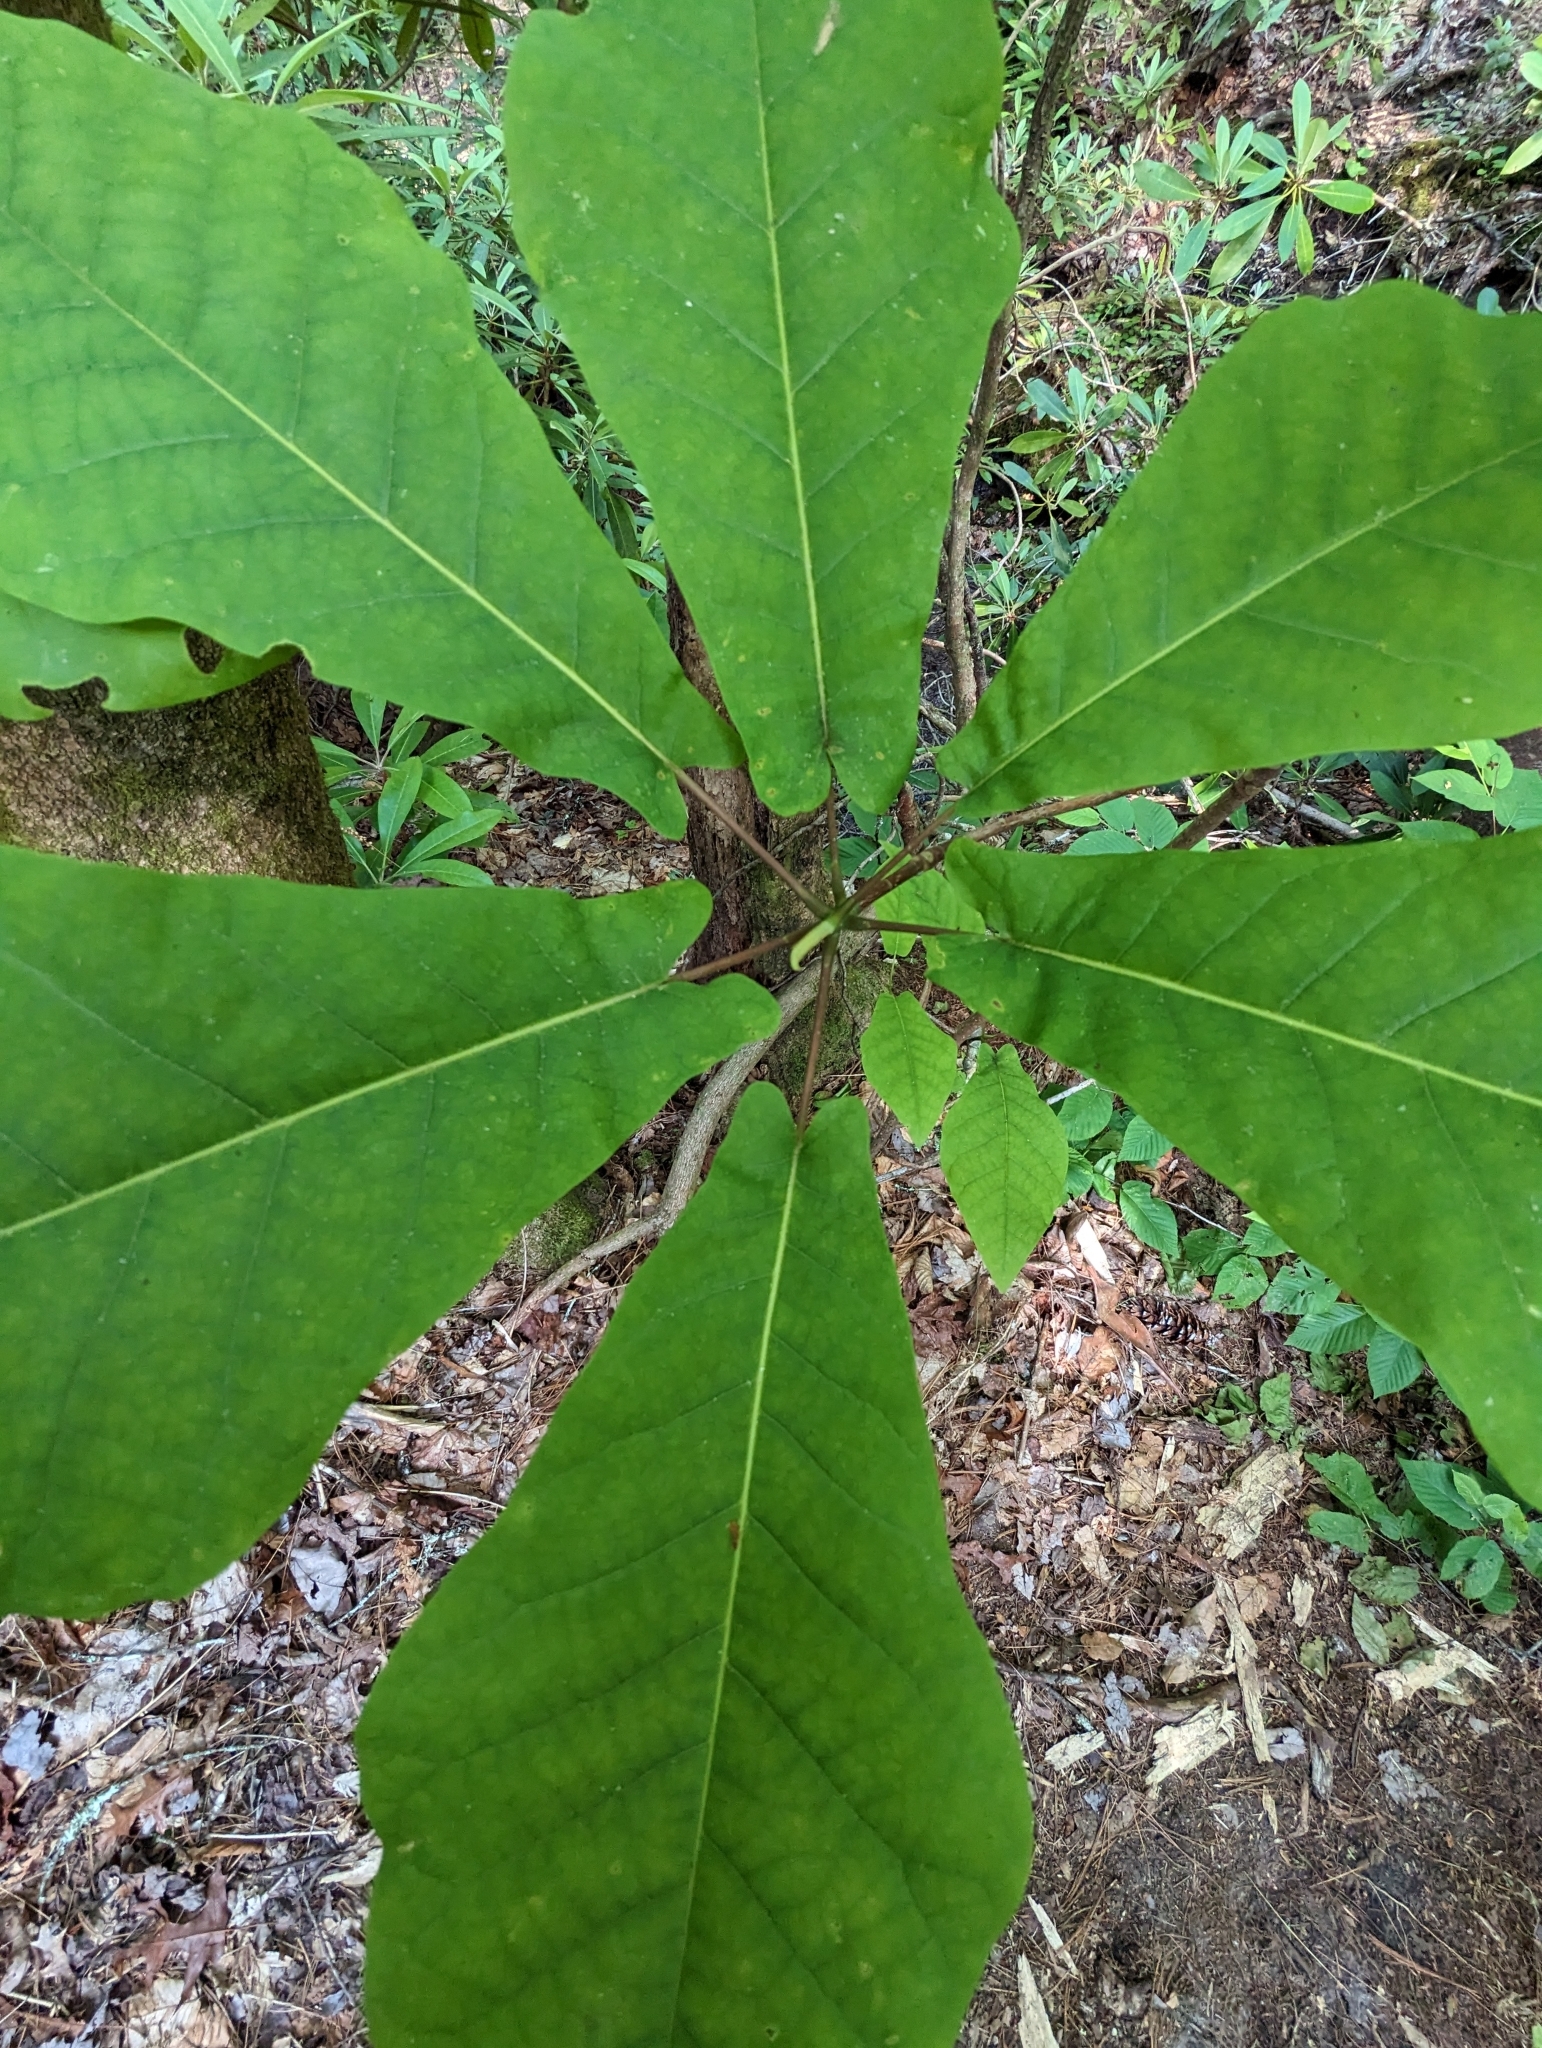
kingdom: Plantae
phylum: Tracheophyta
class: Magnoliopsida
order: Magnoliales
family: Magnoliaceae
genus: Magnolia
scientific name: Magnolia fraseri
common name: Fraser's magnolia
